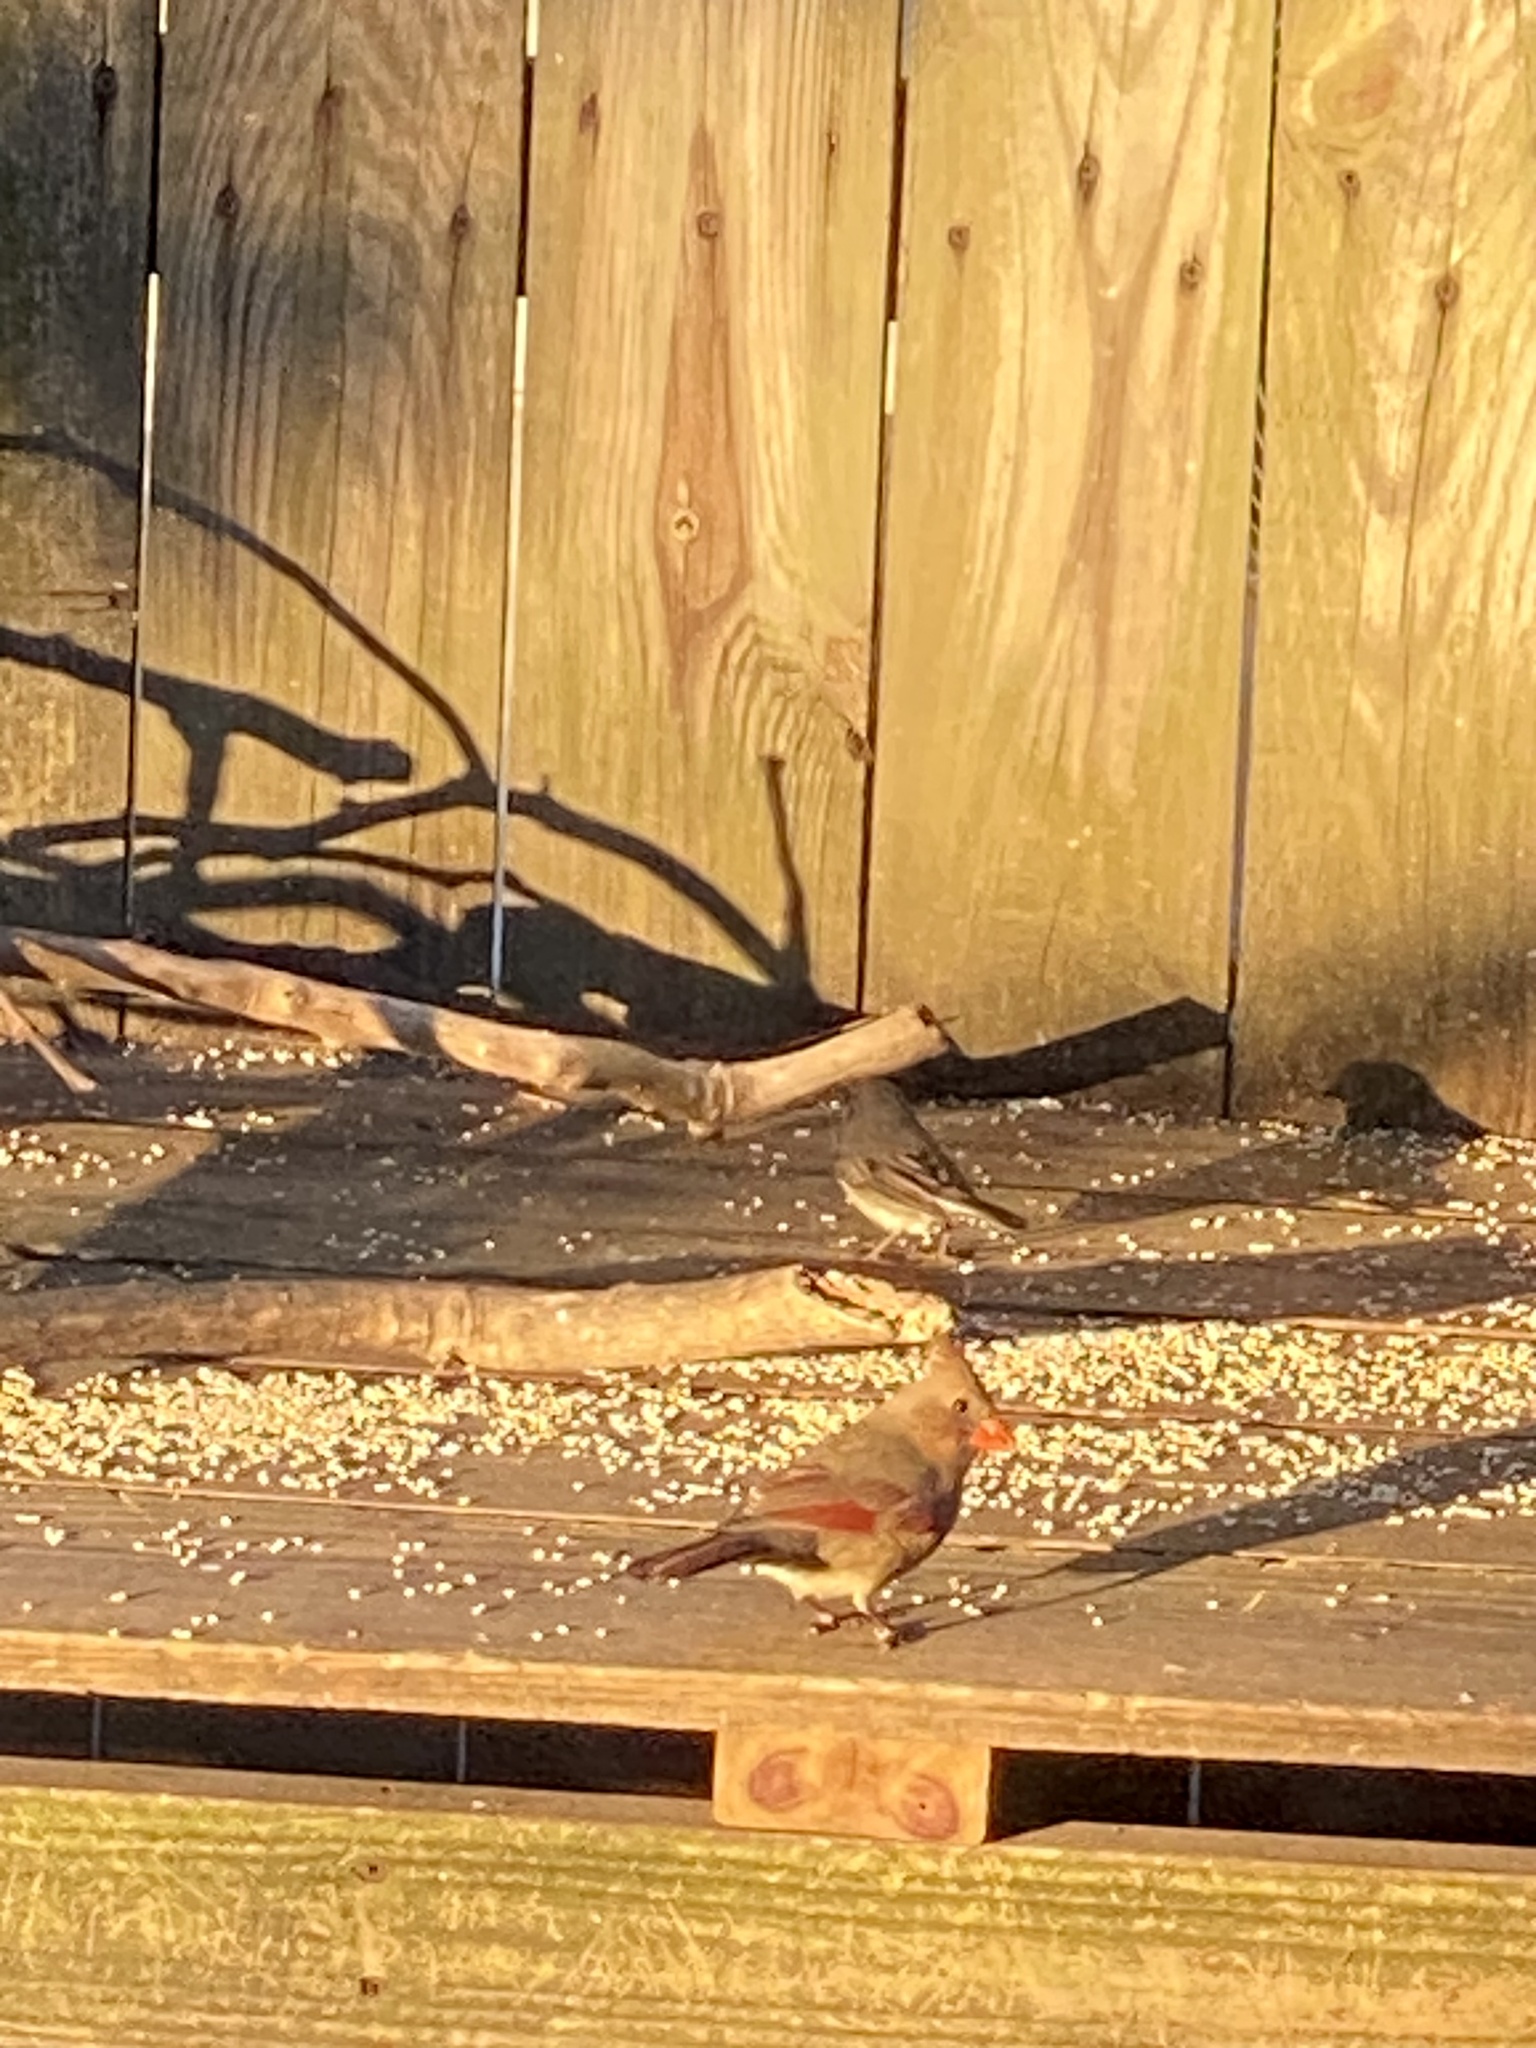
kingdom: Animalia
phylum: Chordata
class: Aves
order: Passeriformes
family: Cardinalidae
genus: Cardinalis
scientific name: Cardinalis cardinalis
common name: Northern cardinal
